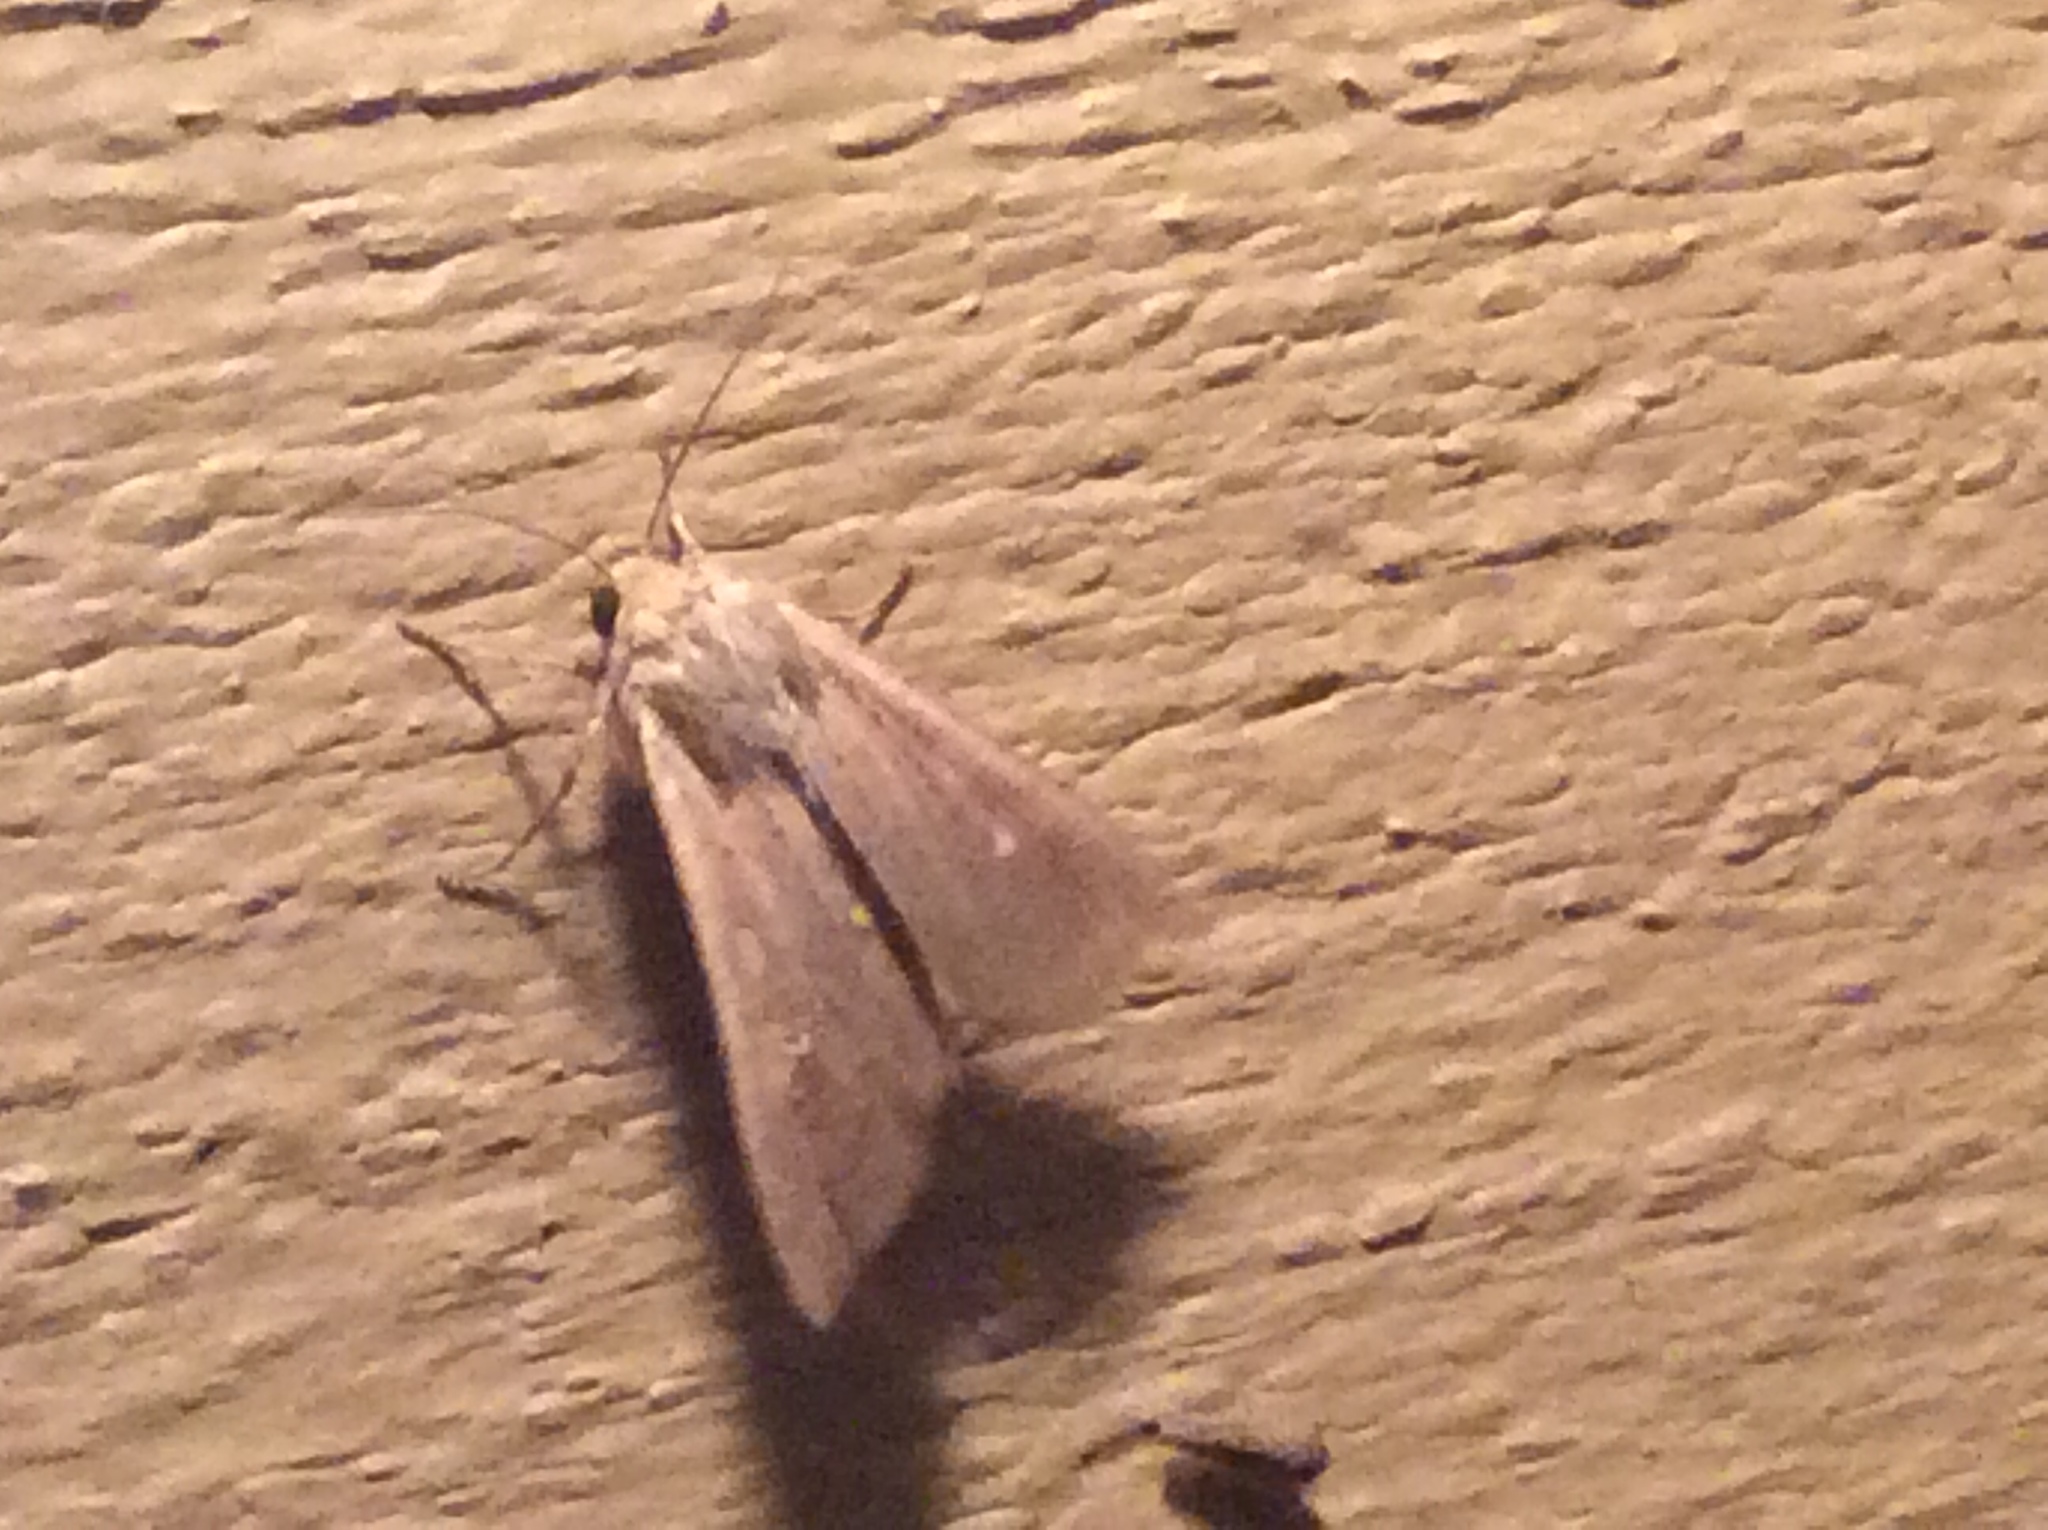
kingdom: Animalia
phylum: Arthropoda
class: Insecta
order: Lepidoptera
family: Noctuidae
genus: Mythimna
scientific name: Mythimna unipuncta
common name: White-speck
